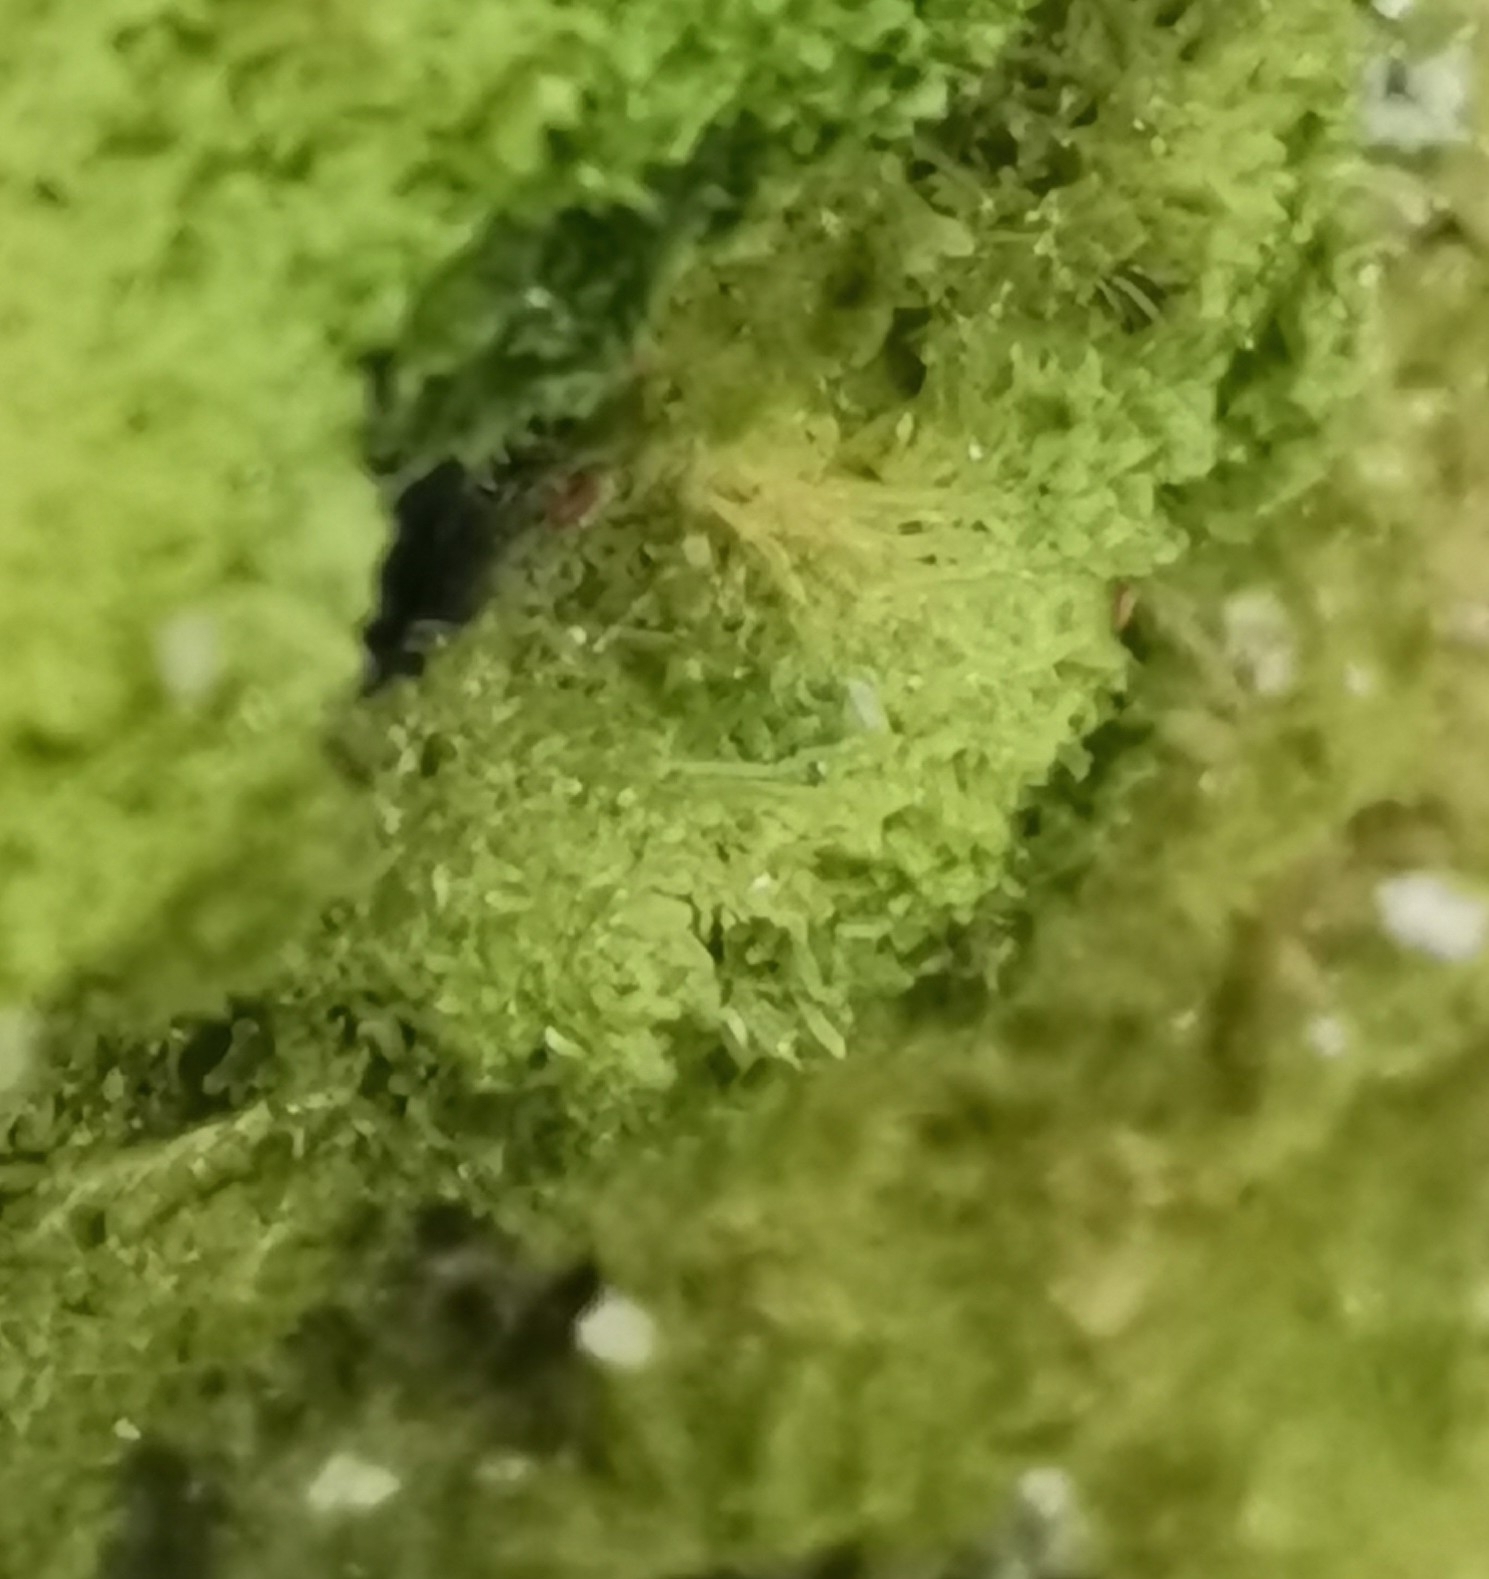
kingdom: Plantae
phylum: Marchantiophyta
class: Jungermanniopsida
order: Metzgeriales
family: Metzgeriaceae
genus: Metzgeria
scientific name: Metzgeria furcata
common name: Forked veilwort
